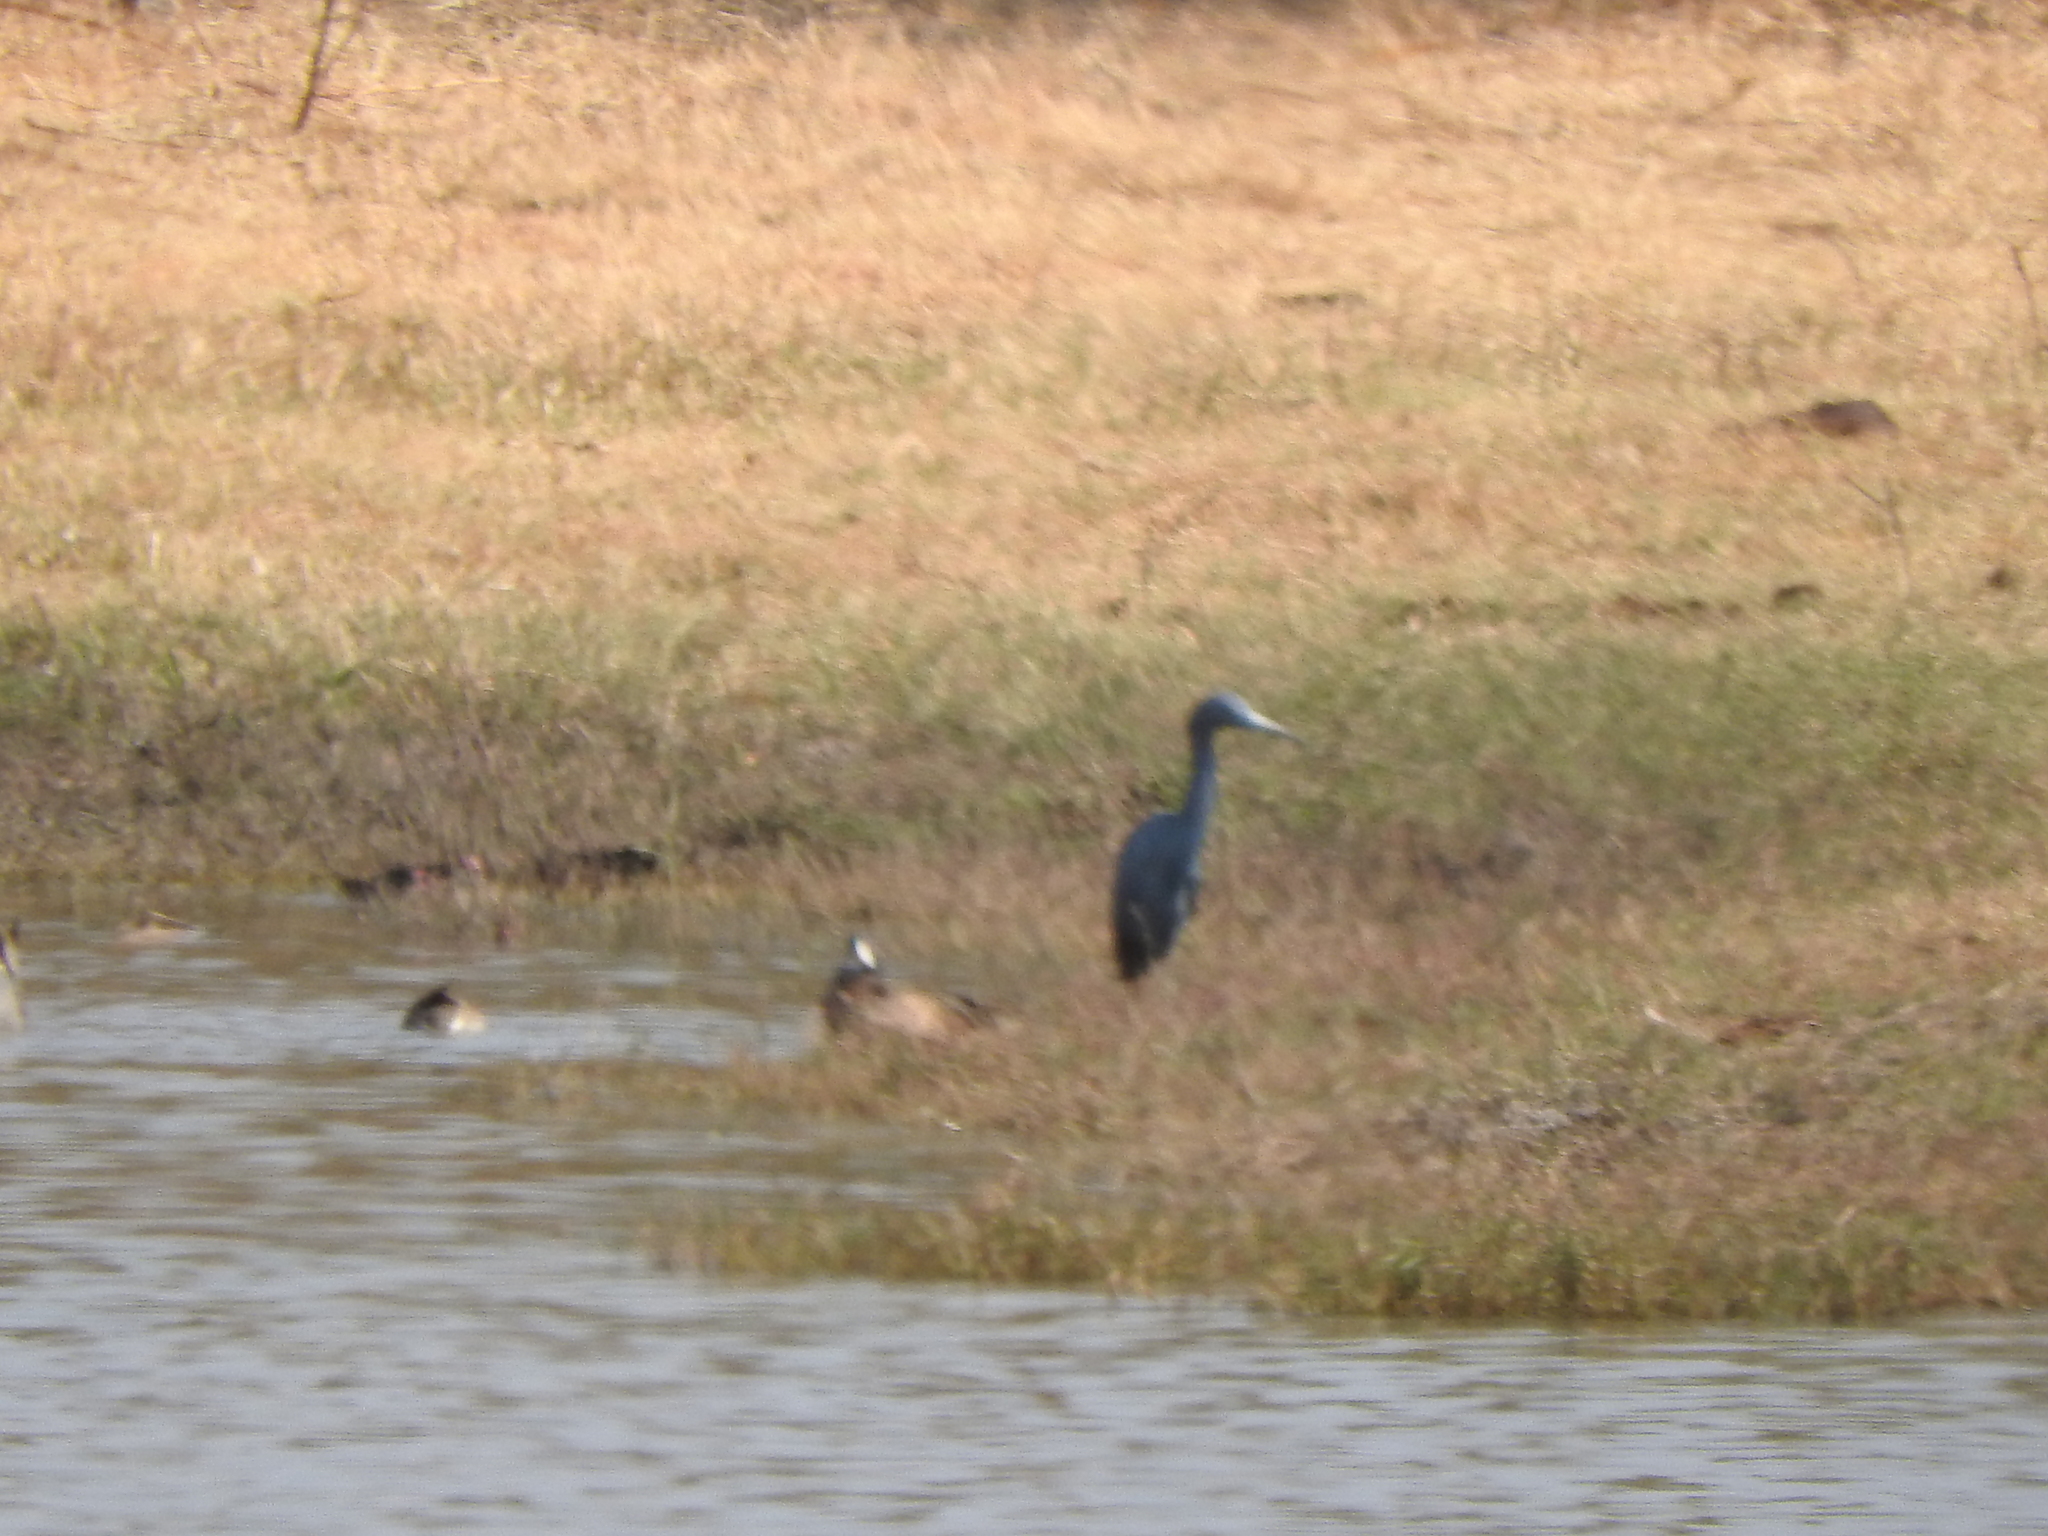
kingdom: Animalia
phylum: Chordata
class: Aves
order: Pelecaniformes
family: Ardeidae
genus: Egretta
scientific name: Egretta caerulea
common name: Little blue heron
